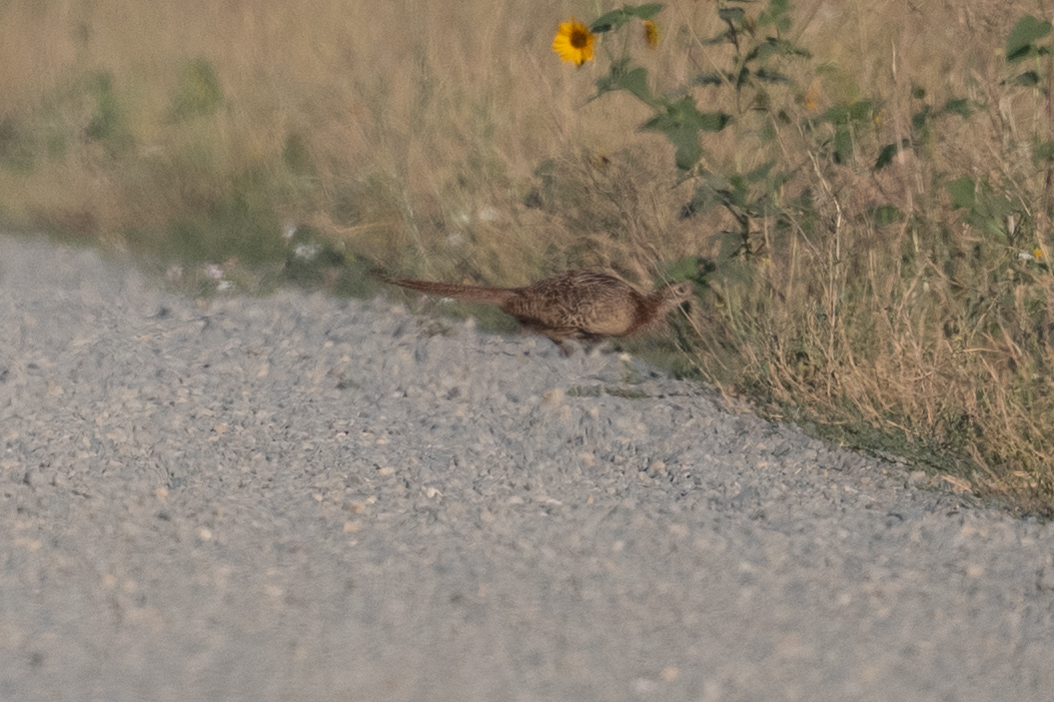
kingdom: Animalia
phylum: Chordata
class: Aves
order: Galliformes
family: Phasianidae
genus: Phasianus
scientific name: Phasianus colchicus
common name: Common pheasant
